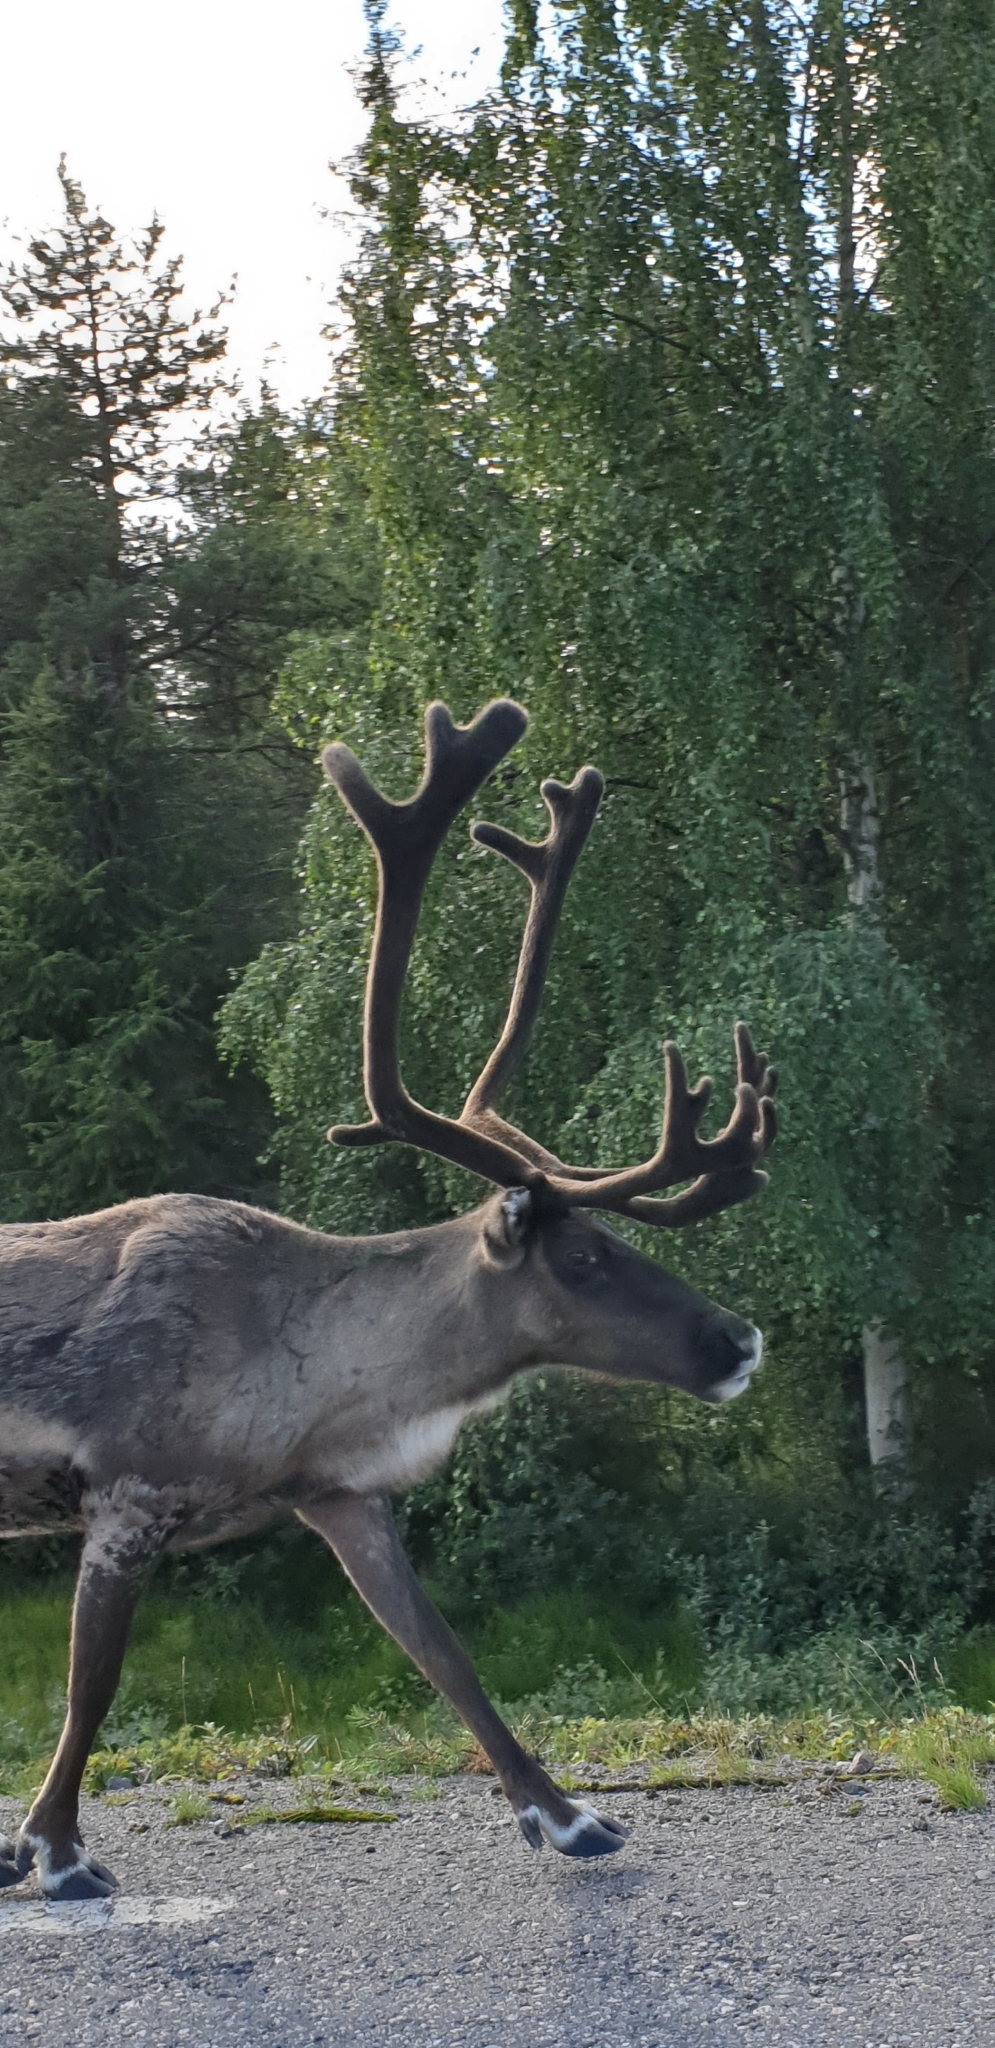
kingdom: Animalia
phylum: Chordata
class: Mammalia
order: Artiodactyla
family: Cervidae
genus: Rangifer
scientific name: Rangifer tarandus
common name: Reindeer
